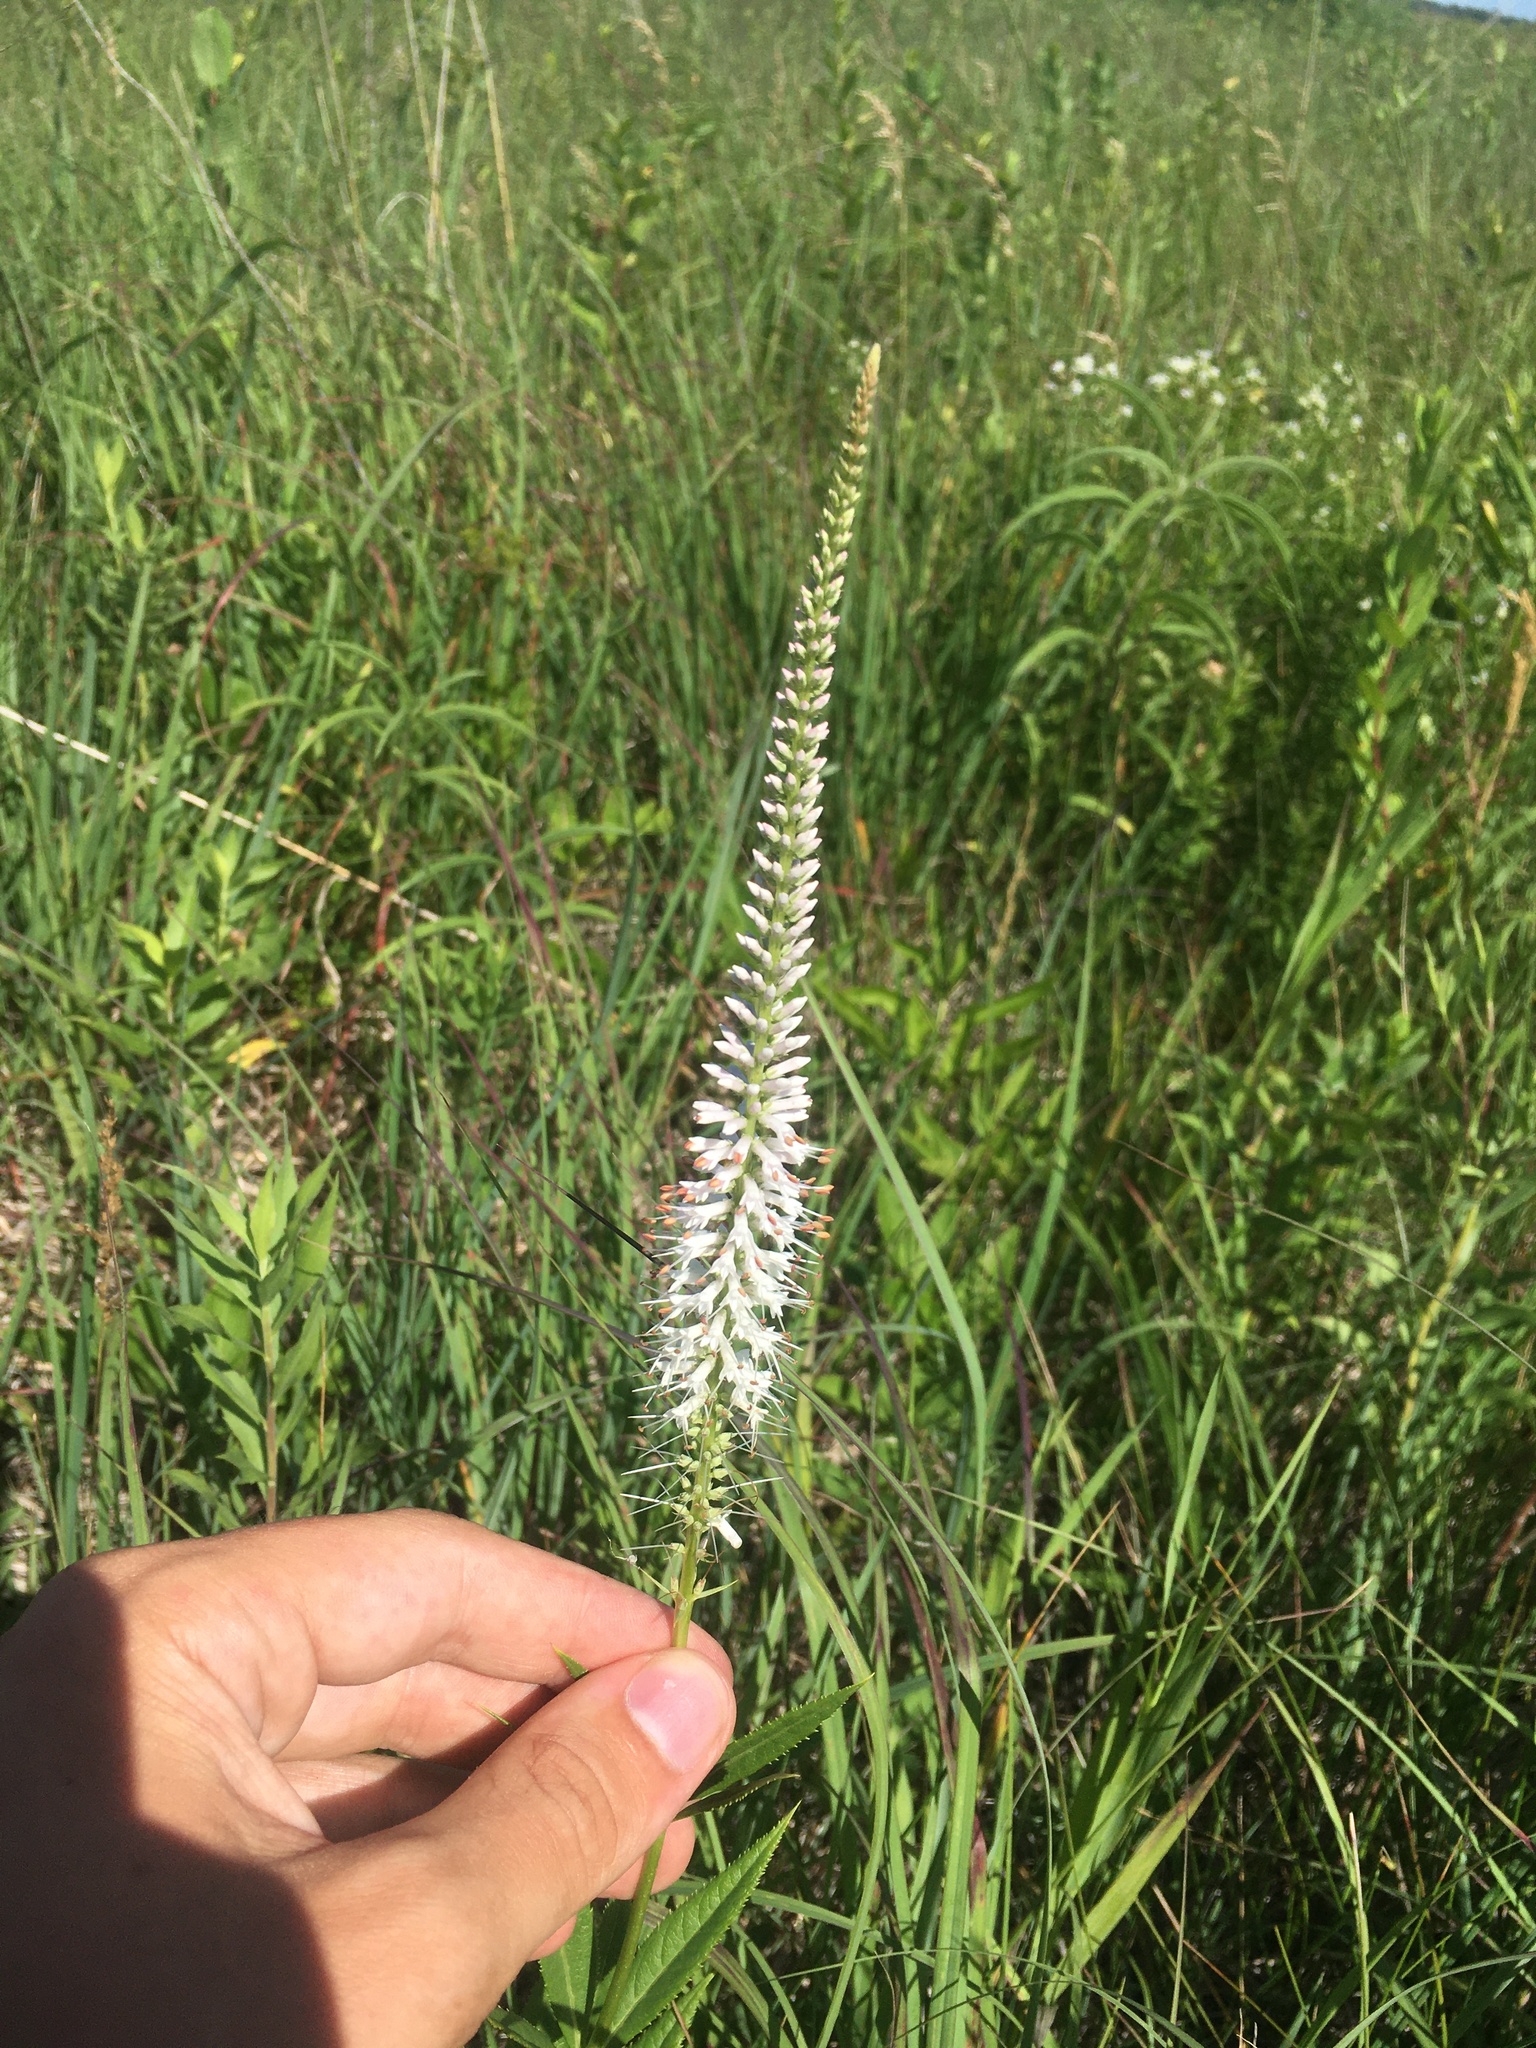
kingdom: Plantae
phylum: Tracheophyta
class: Magnoliopsida
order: Lamiales
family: Plantaginaceae
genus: Veronicastrum
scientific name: Veronicastrum virginicum
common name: Blackroot
